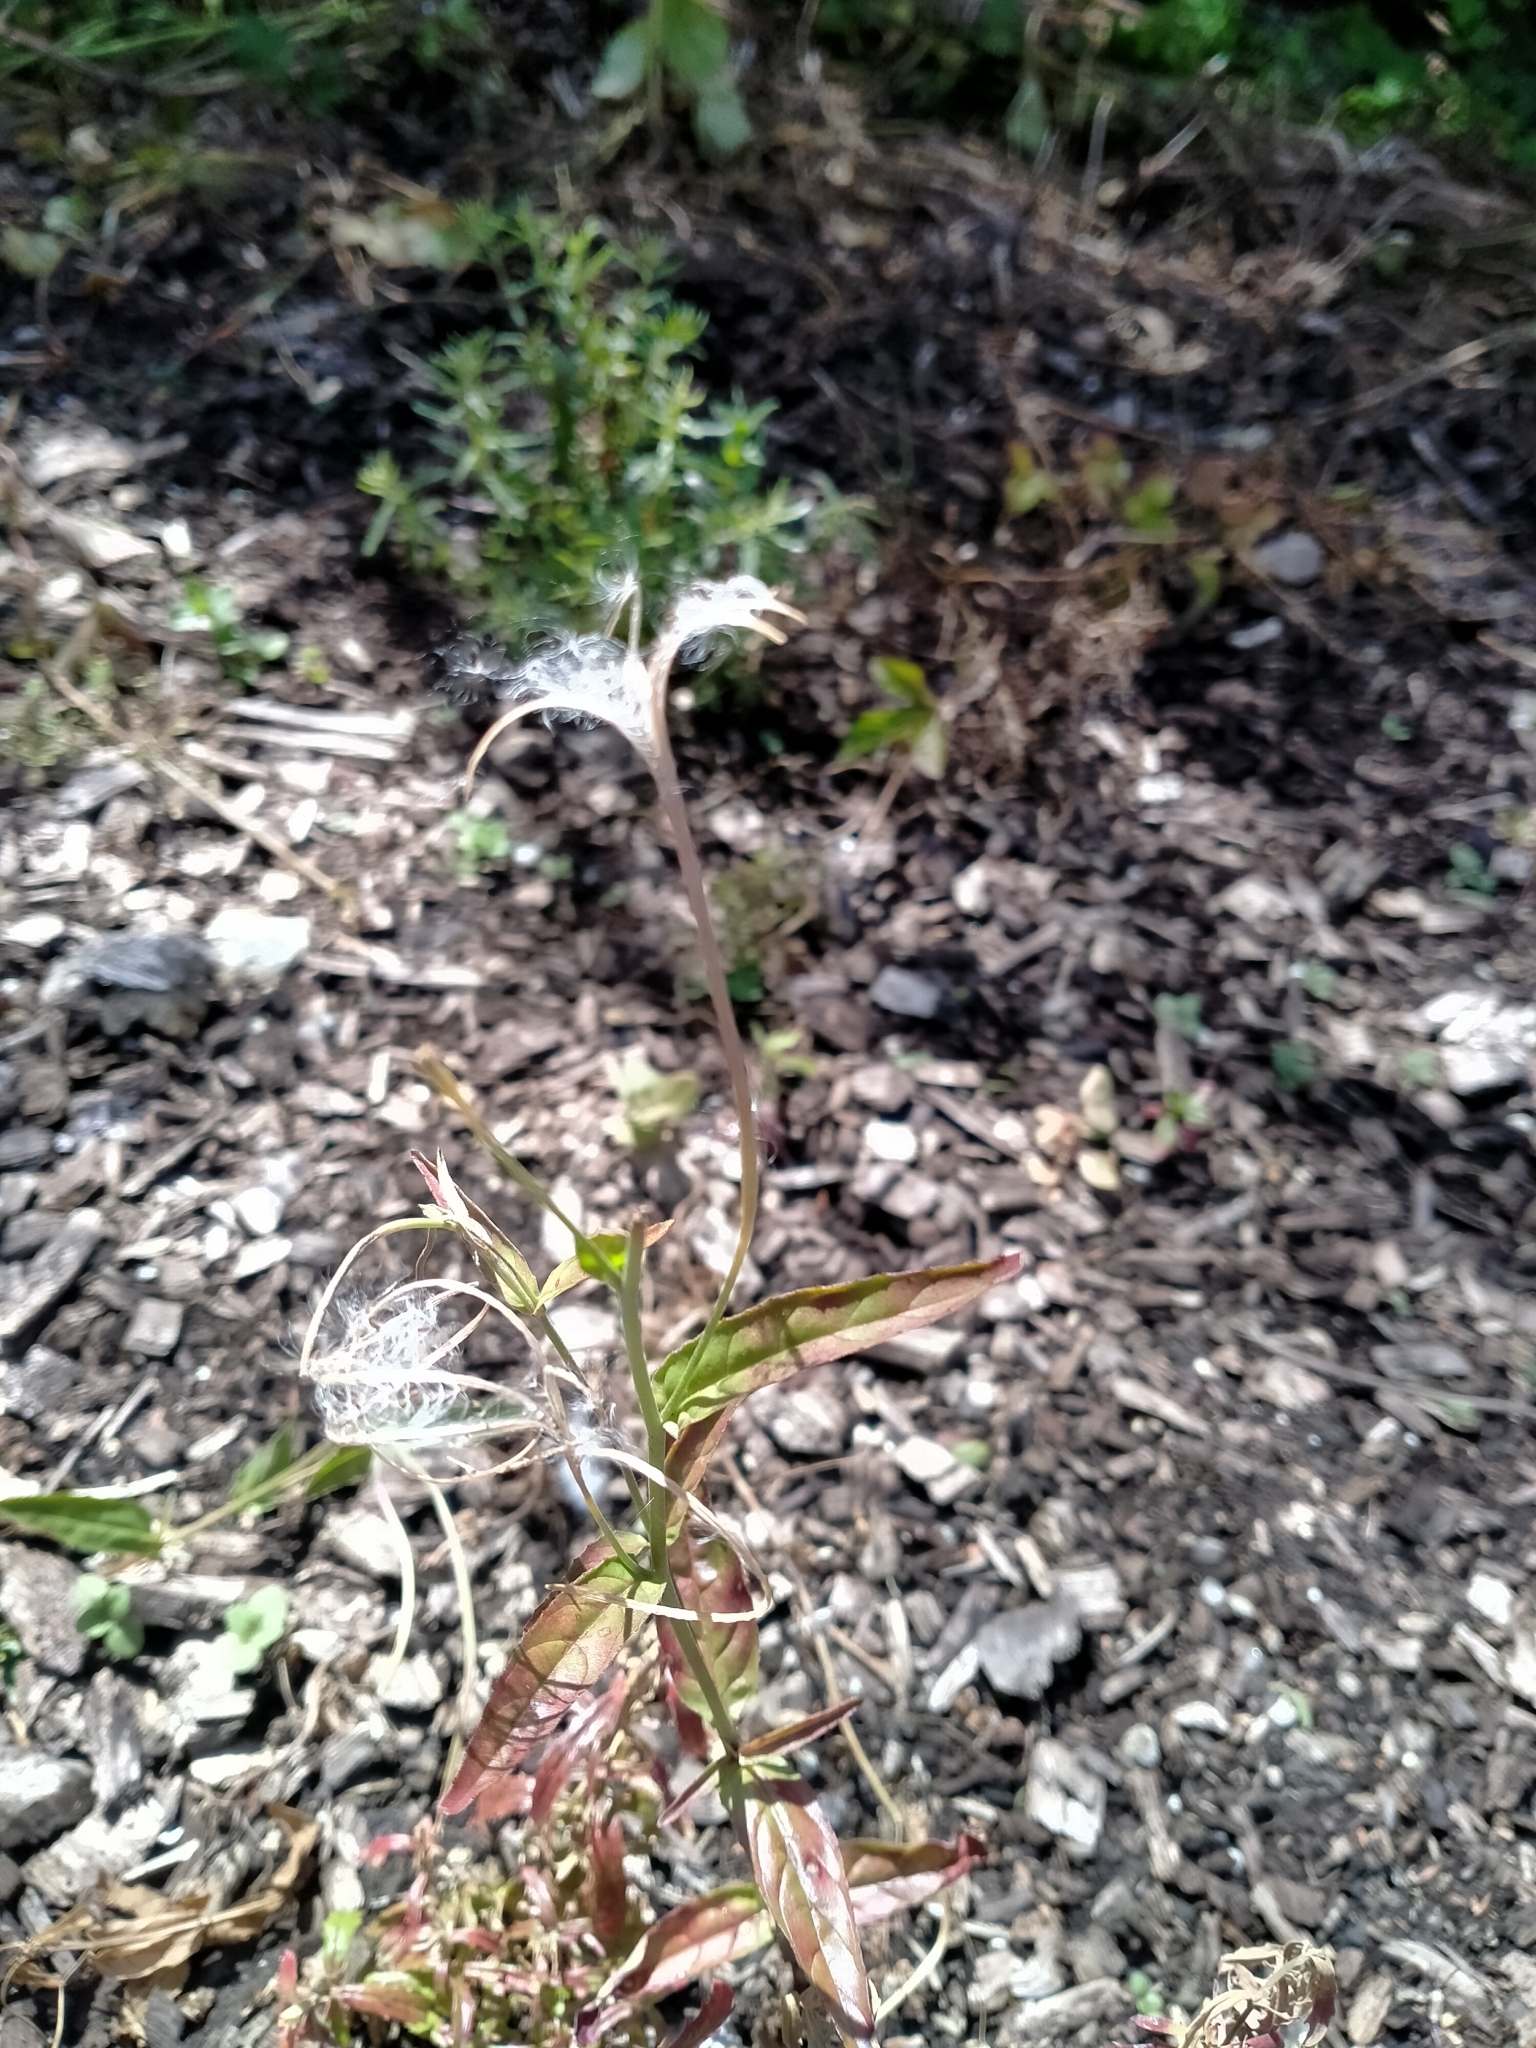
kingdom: Plantae
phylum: Tracheophyta
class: Magnoliopsida
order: Myrtales
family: Onagraceae
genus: Epilobium
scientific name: Epilobium ciliatum
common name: American willowherb
